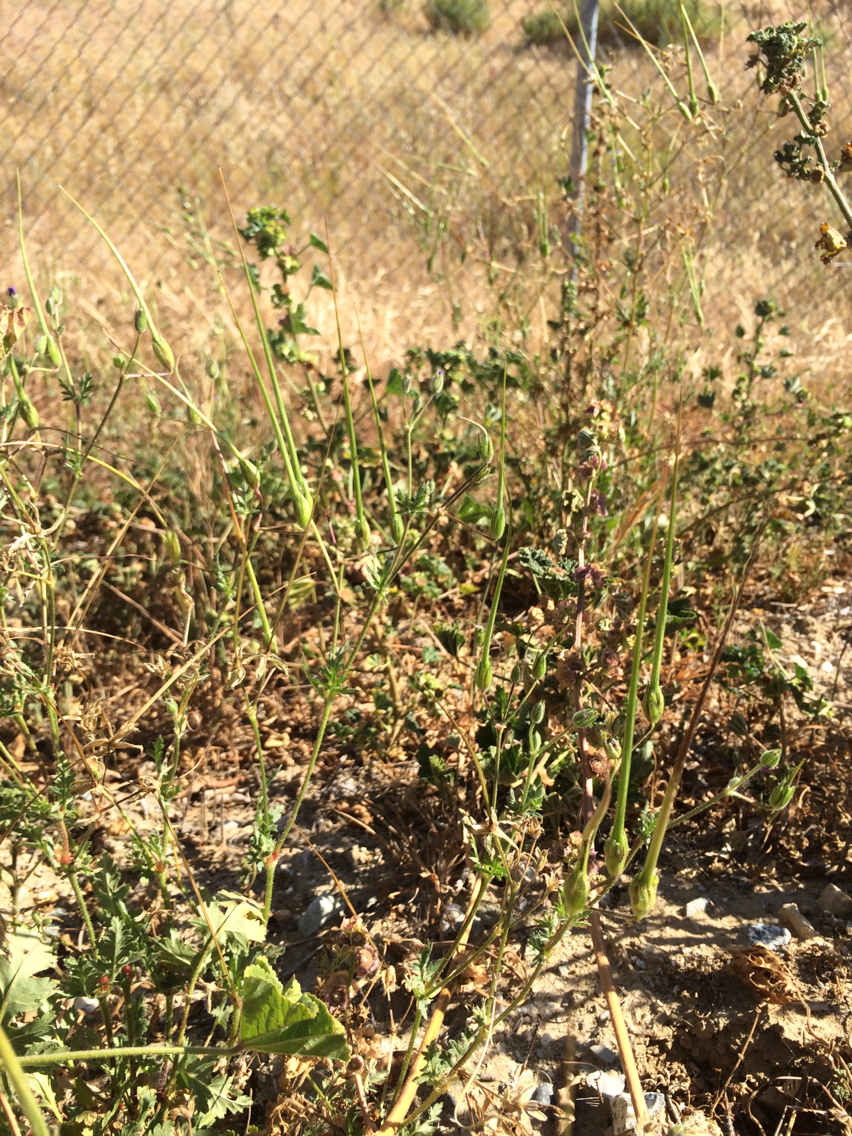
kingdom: Plantae
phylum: Tracheophyta
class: Magnoliopsida
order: Geraniales
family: Geraniaceae
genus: Erodium
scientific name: Erodium botrys
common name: Mediterranean stork's-bill
